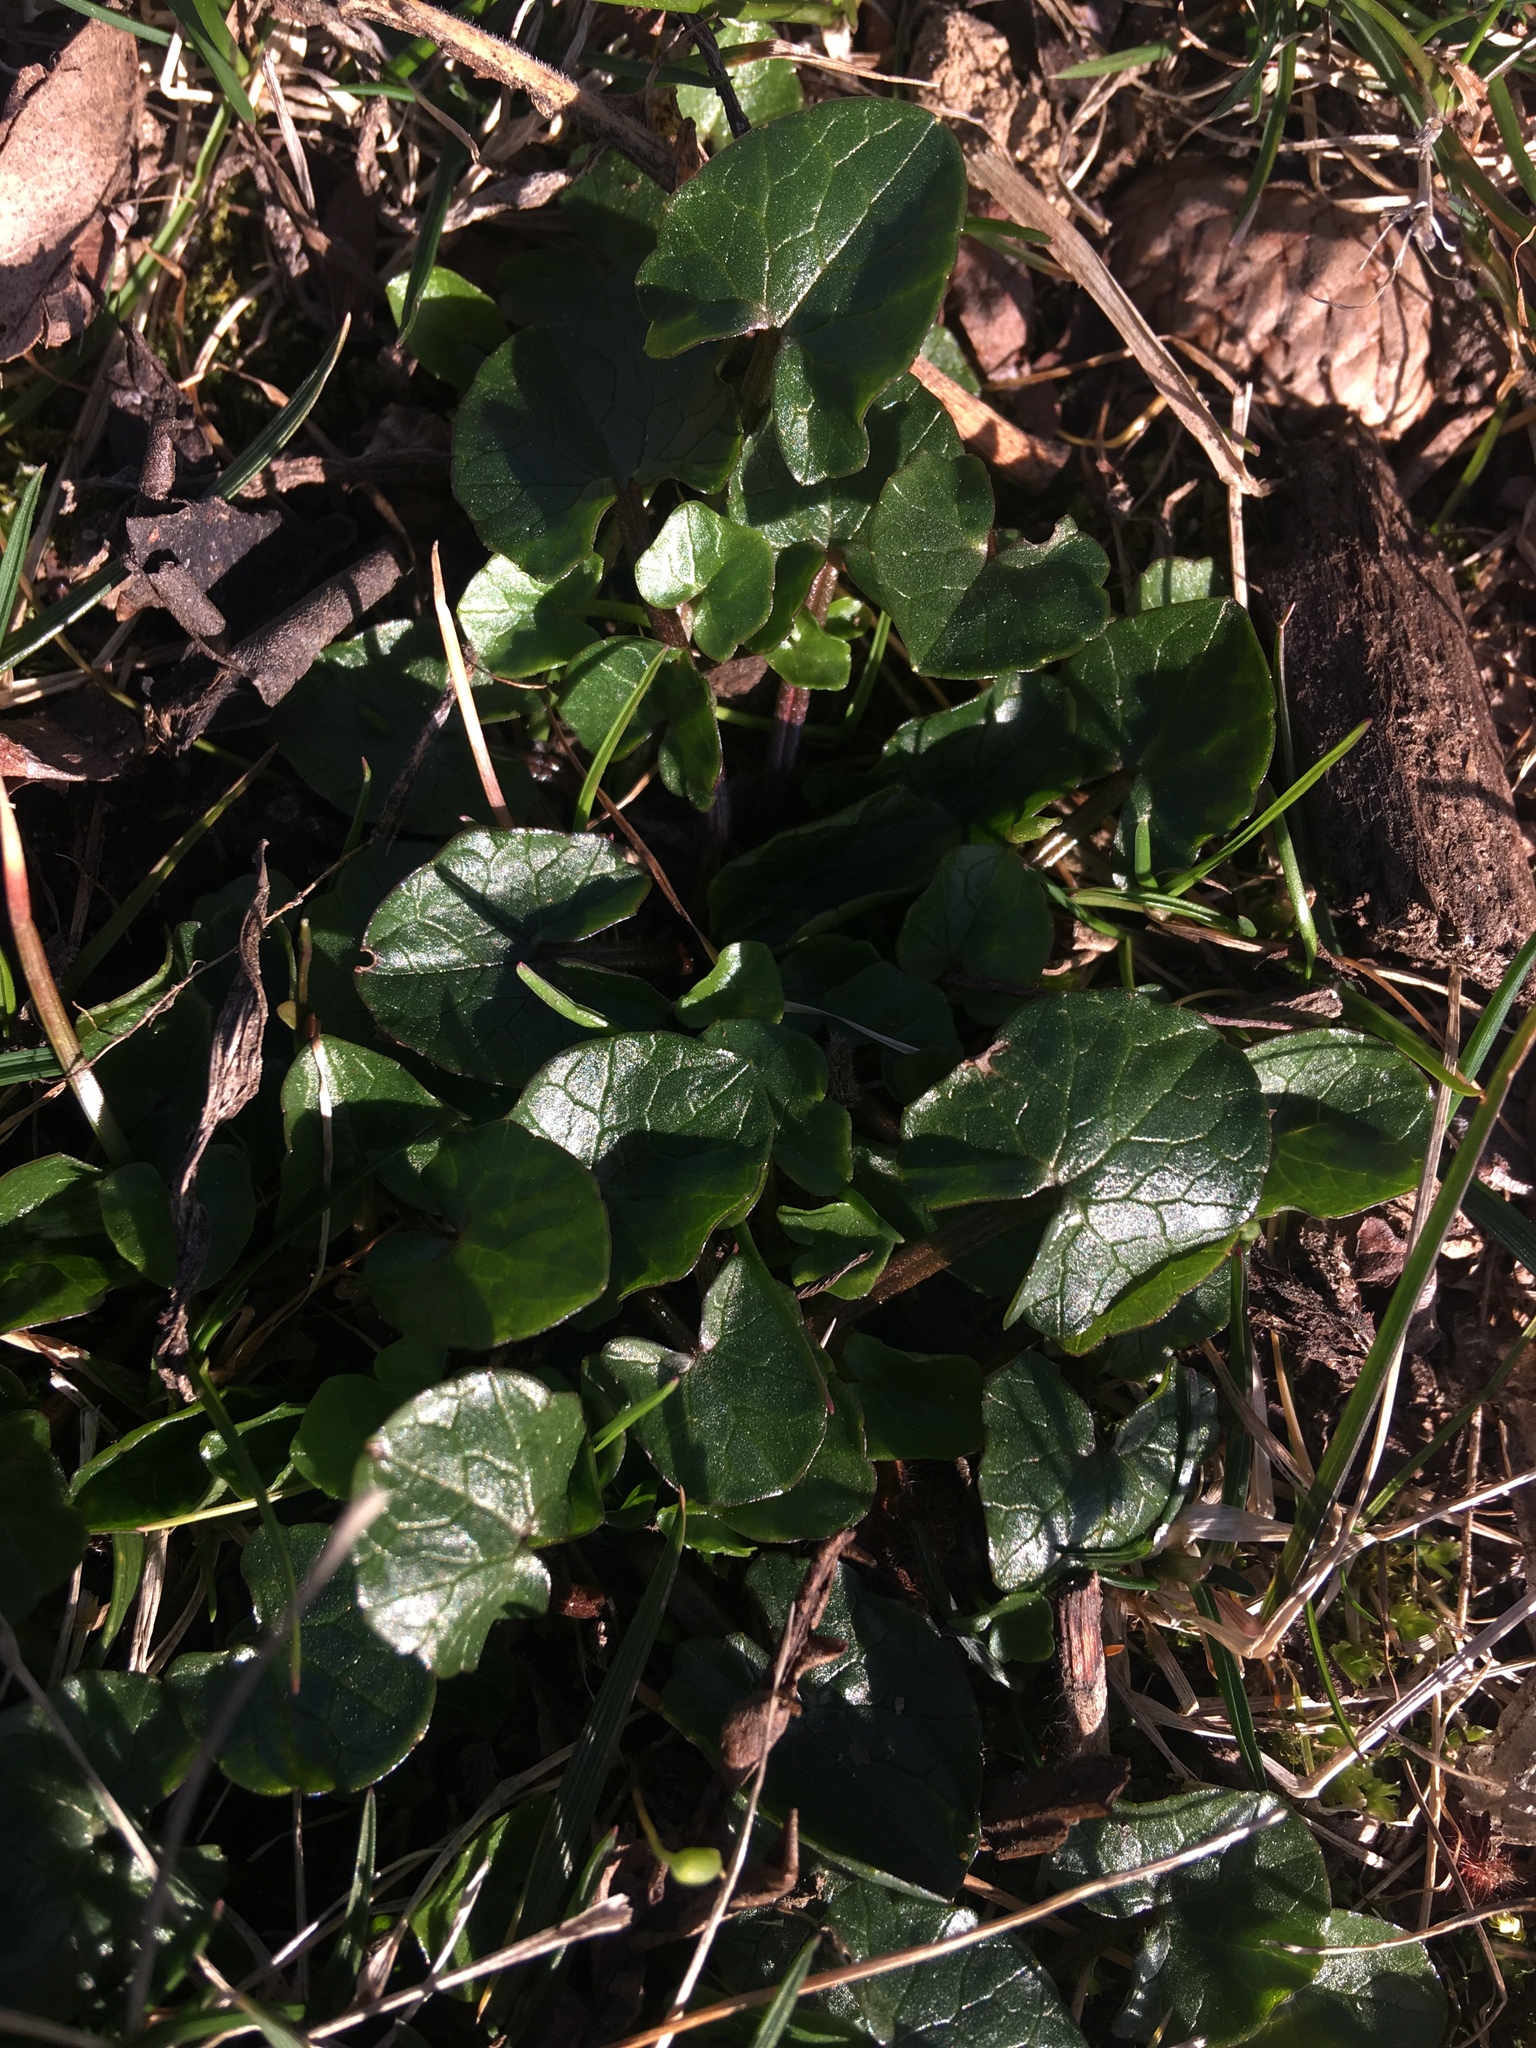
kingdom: Plantae
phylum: Tracheophyta
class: Magnoliopsida
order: Ranunculales
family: Ranunculaceae
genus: Ficaria
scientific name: Ficaria verna
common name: Lesser celandine
